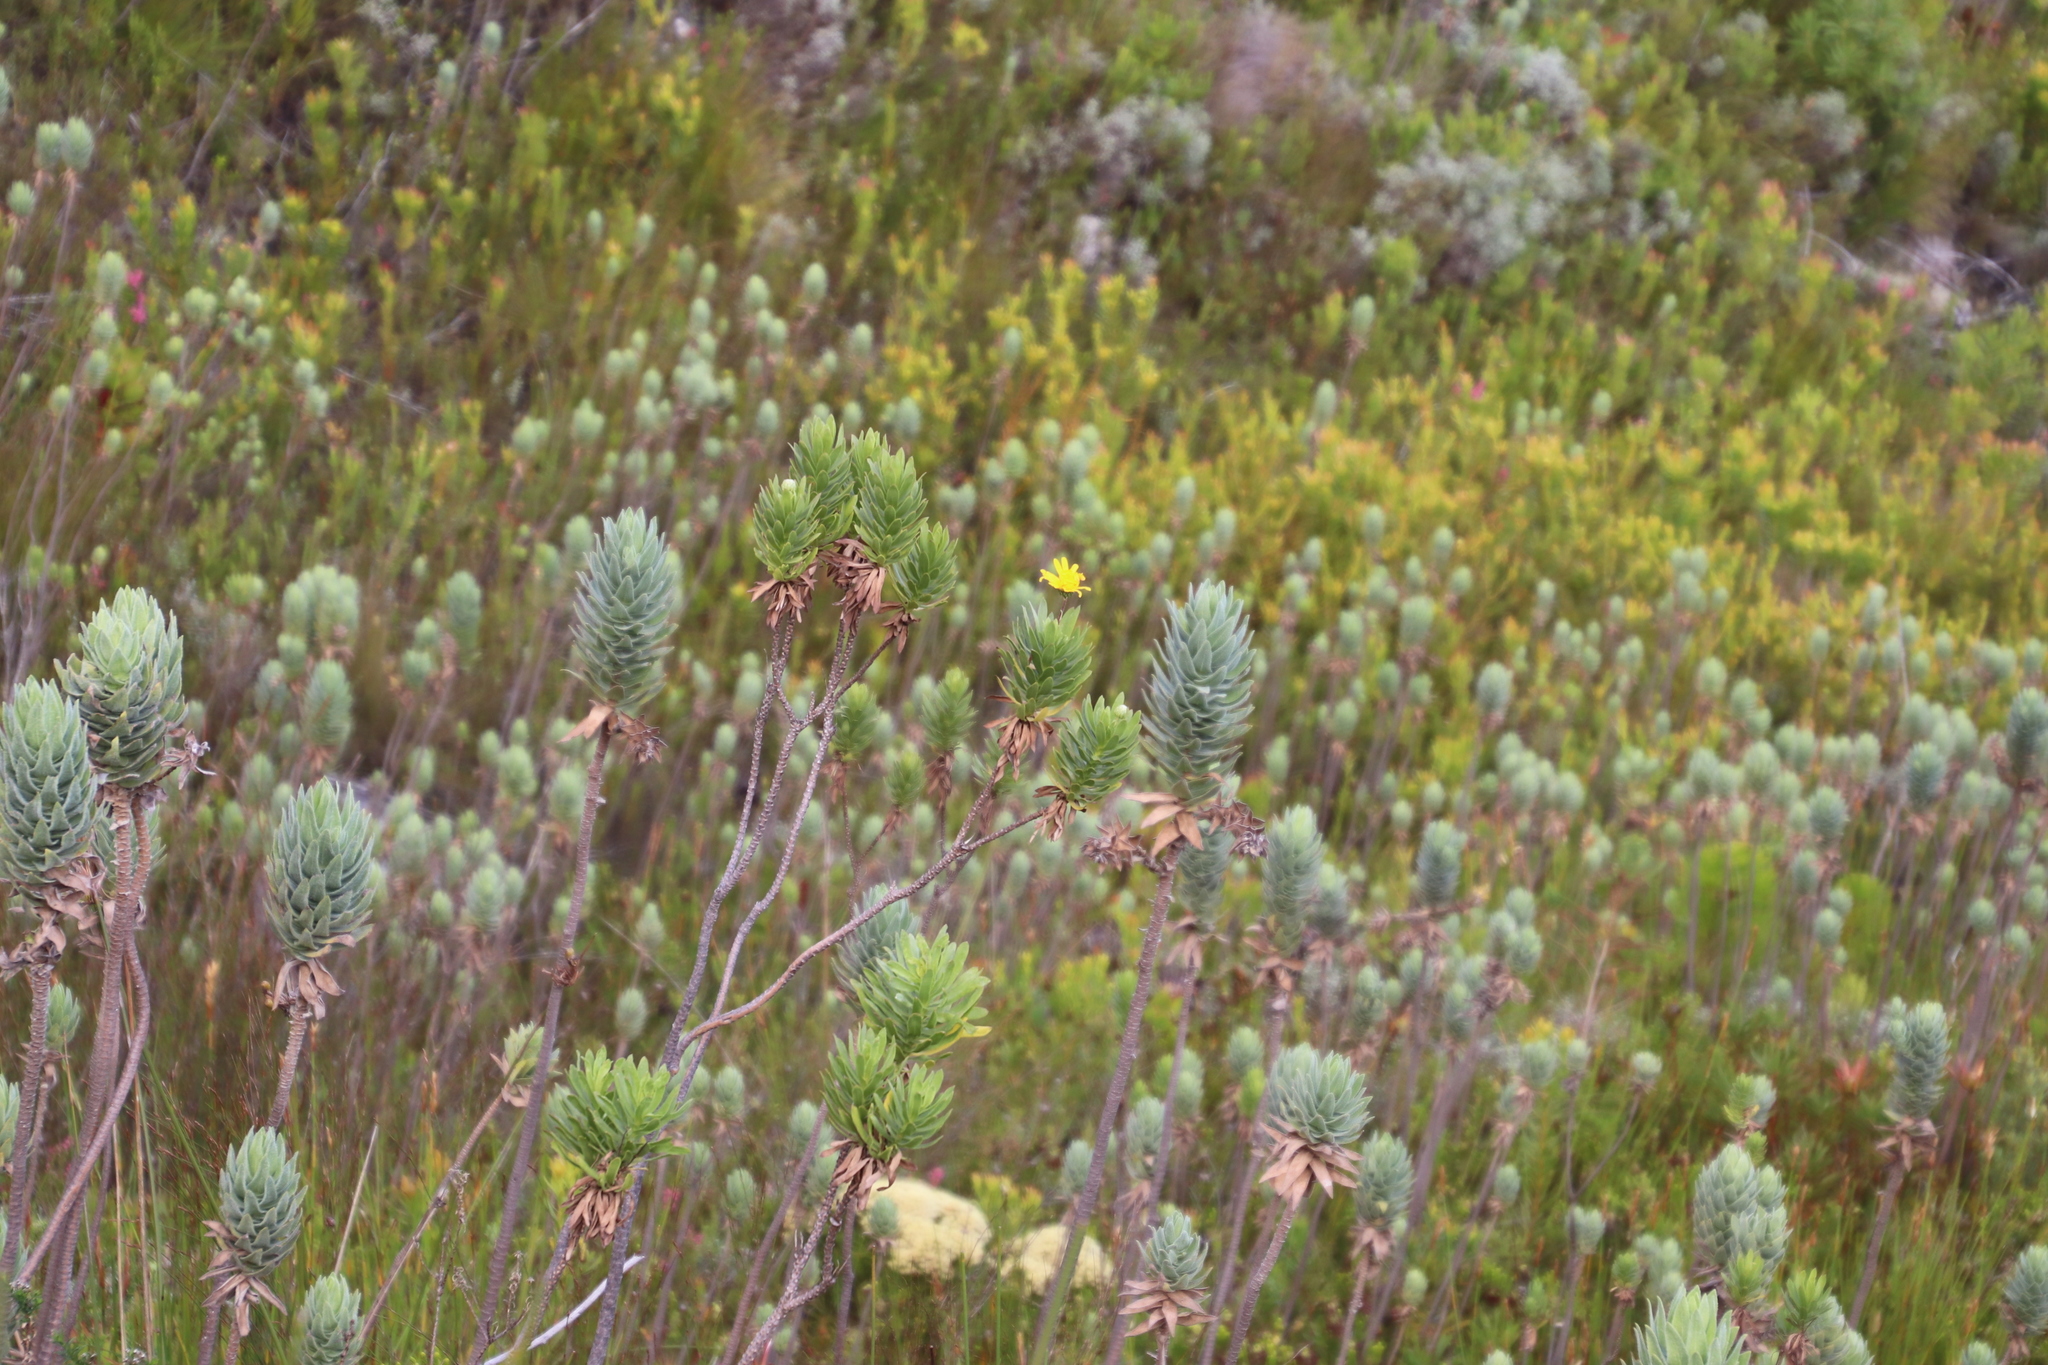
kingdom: Plantae
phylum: Tracheophyta
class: Magnoliopsida
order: Asterales
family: Asteraceae
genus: Ursinia
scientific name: Ursinia eckloniana
